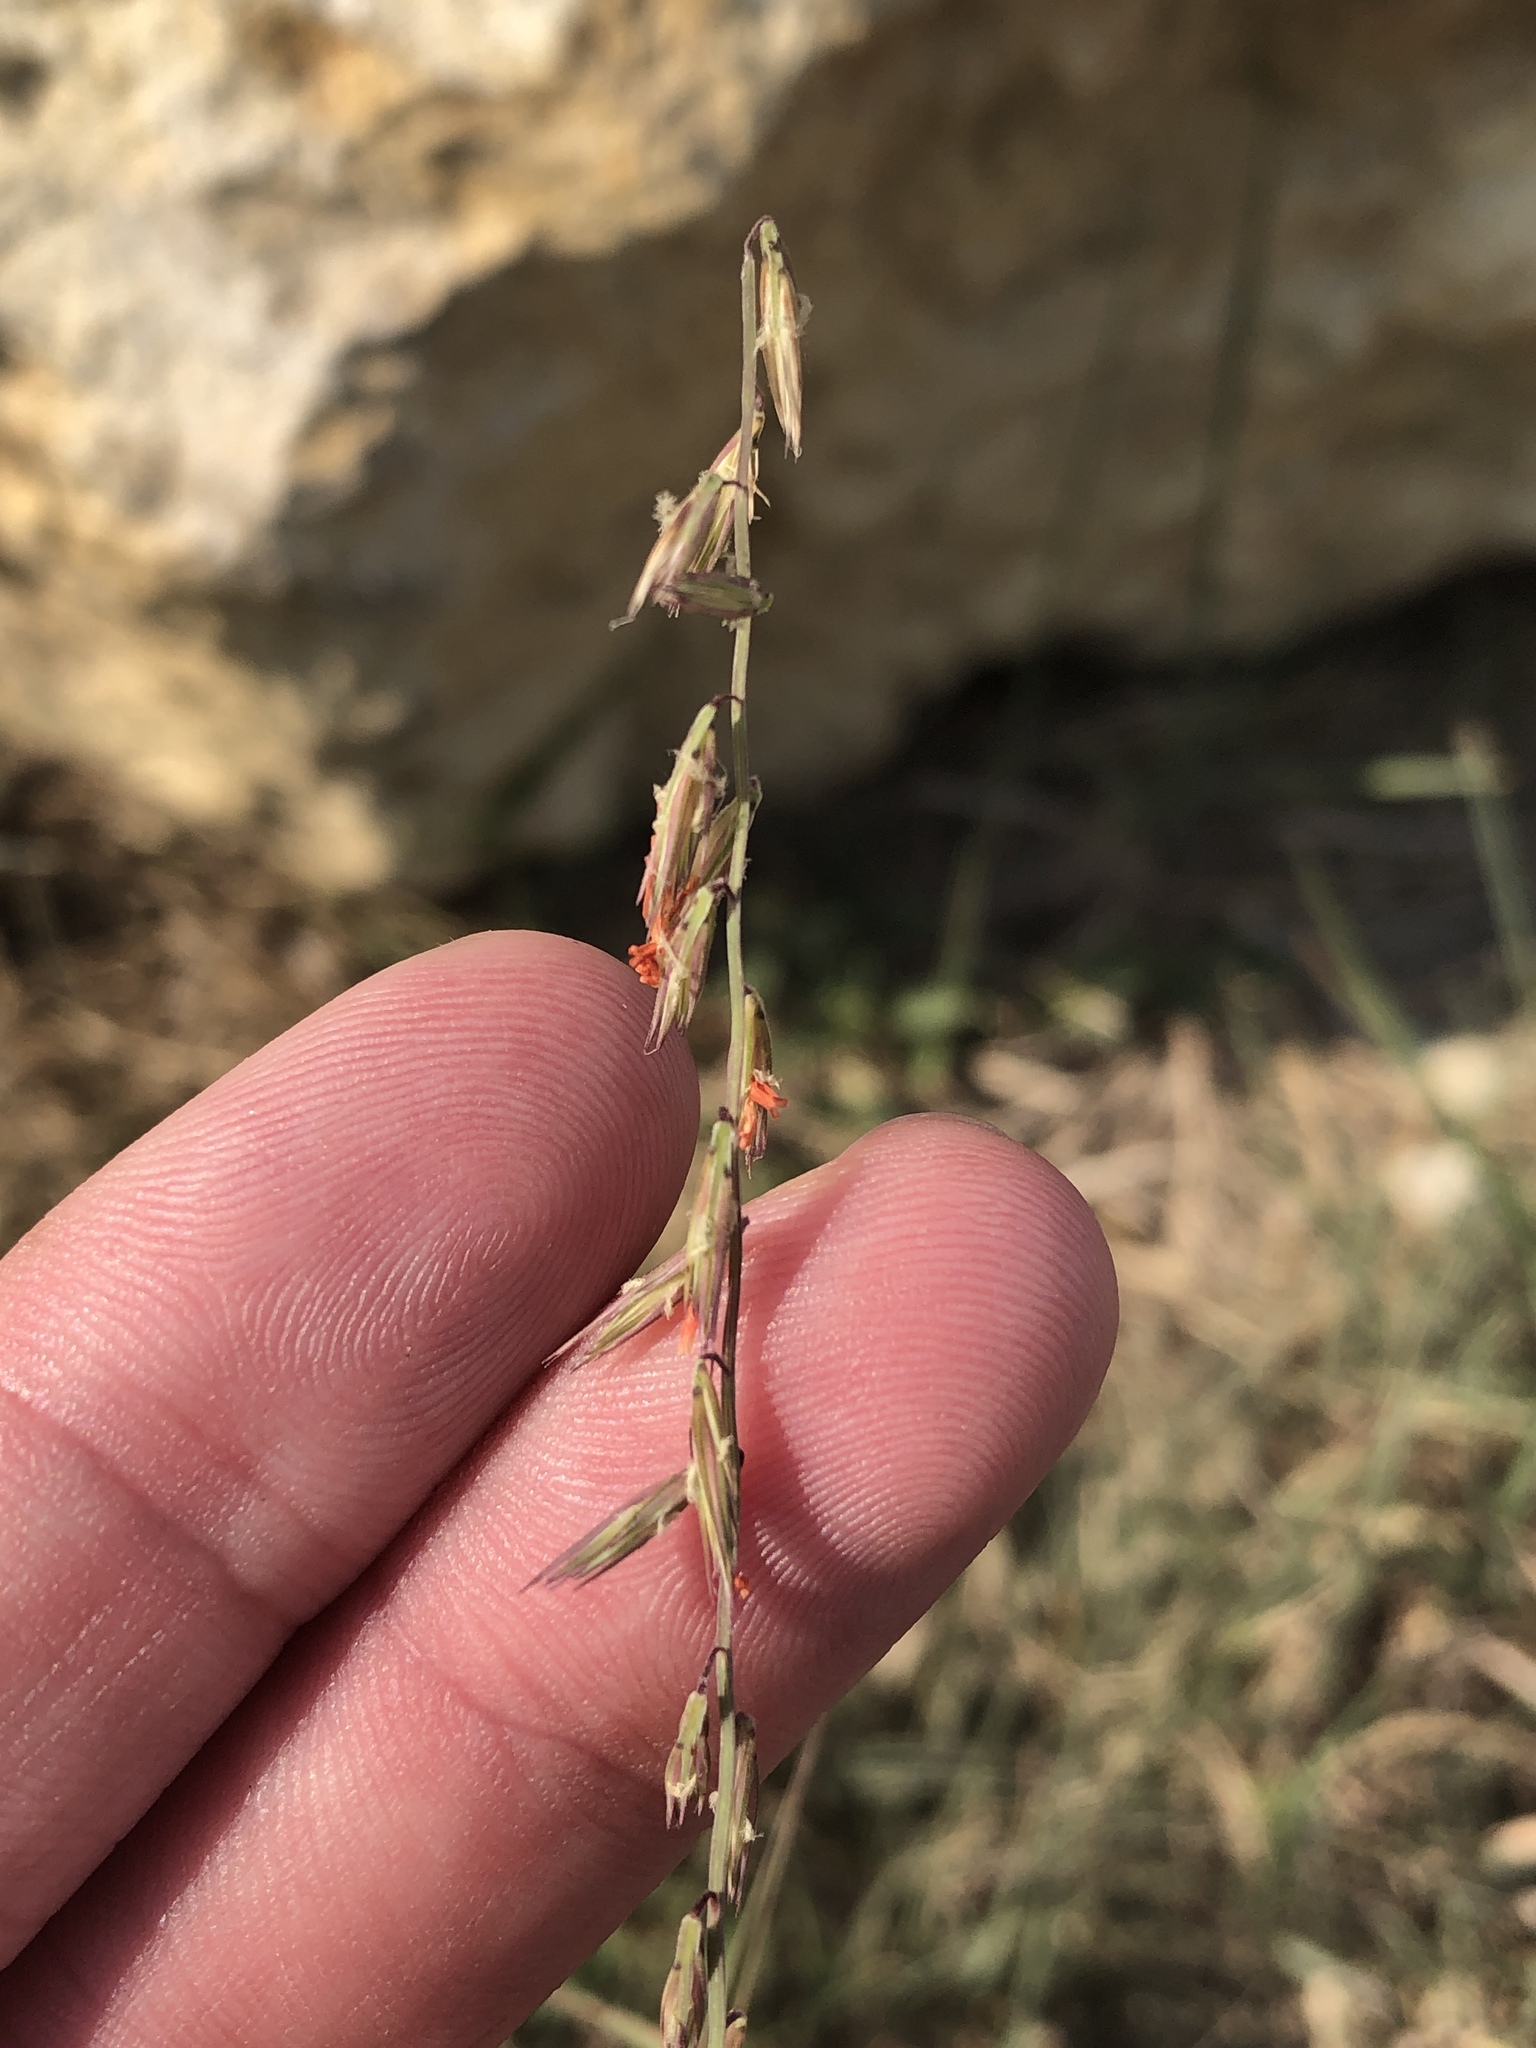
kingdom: Plantae
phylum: Tracheophyta
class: Liliopsida
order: Poales
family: Poaceae
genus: Bouteloua
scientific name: Bouteloua curtipendula
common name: Side-oats grama
